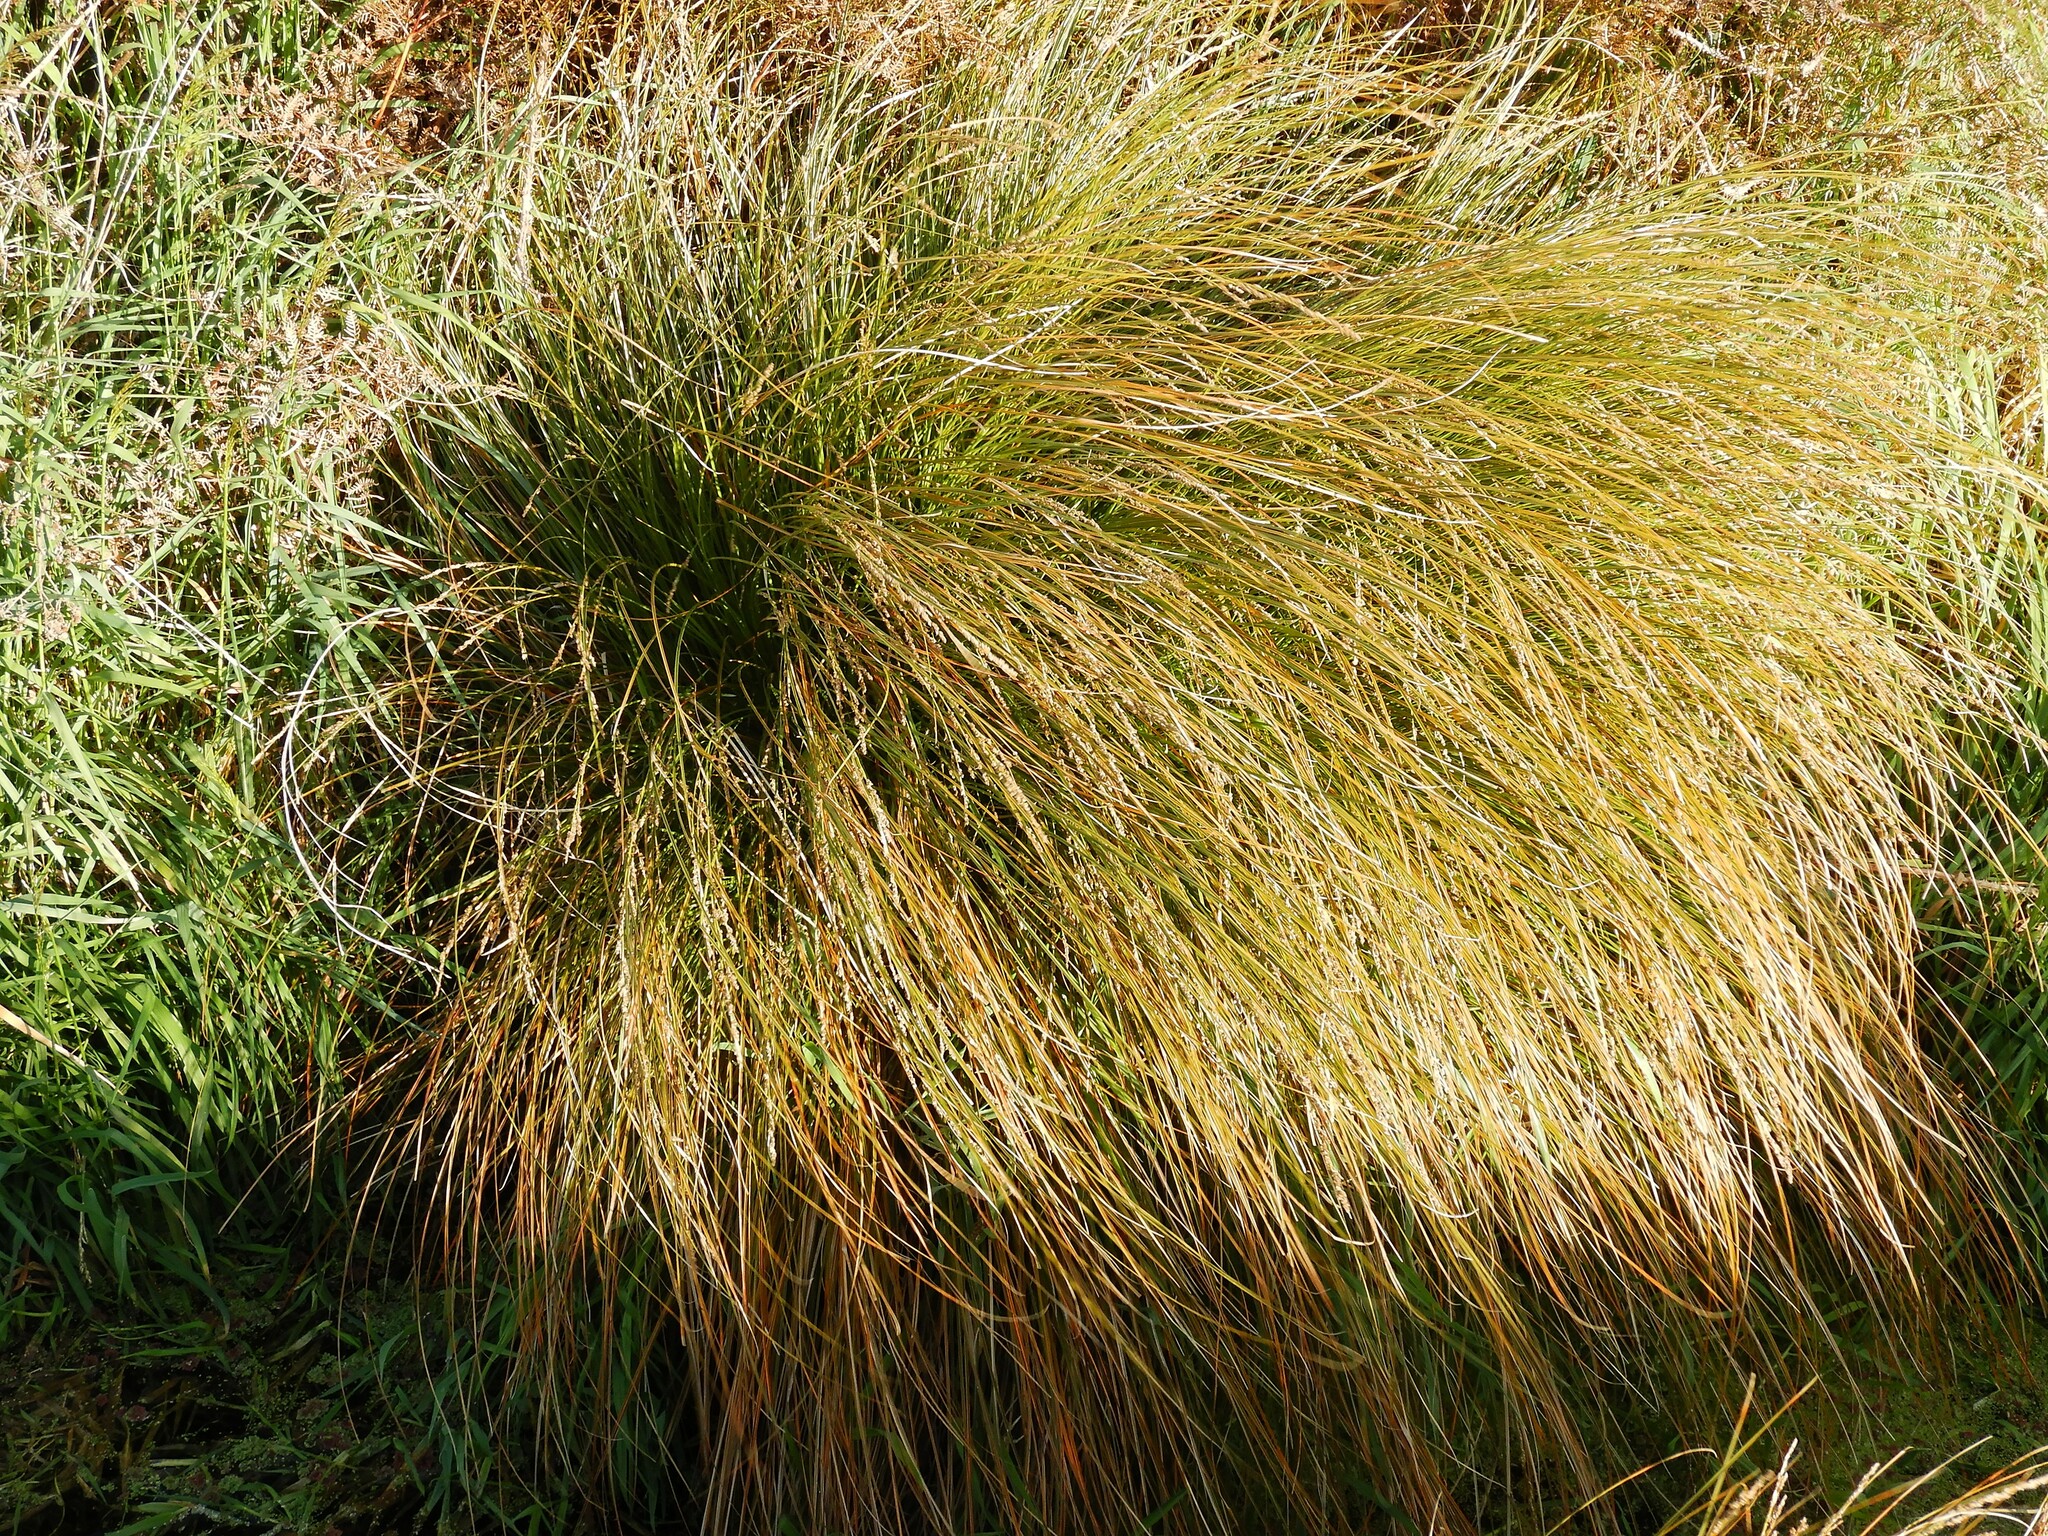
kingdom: Plantae
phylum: Tracheophyta
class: Liliopsida
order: Poales
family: Cyperaceae
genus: Carex
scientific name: Carex secta
